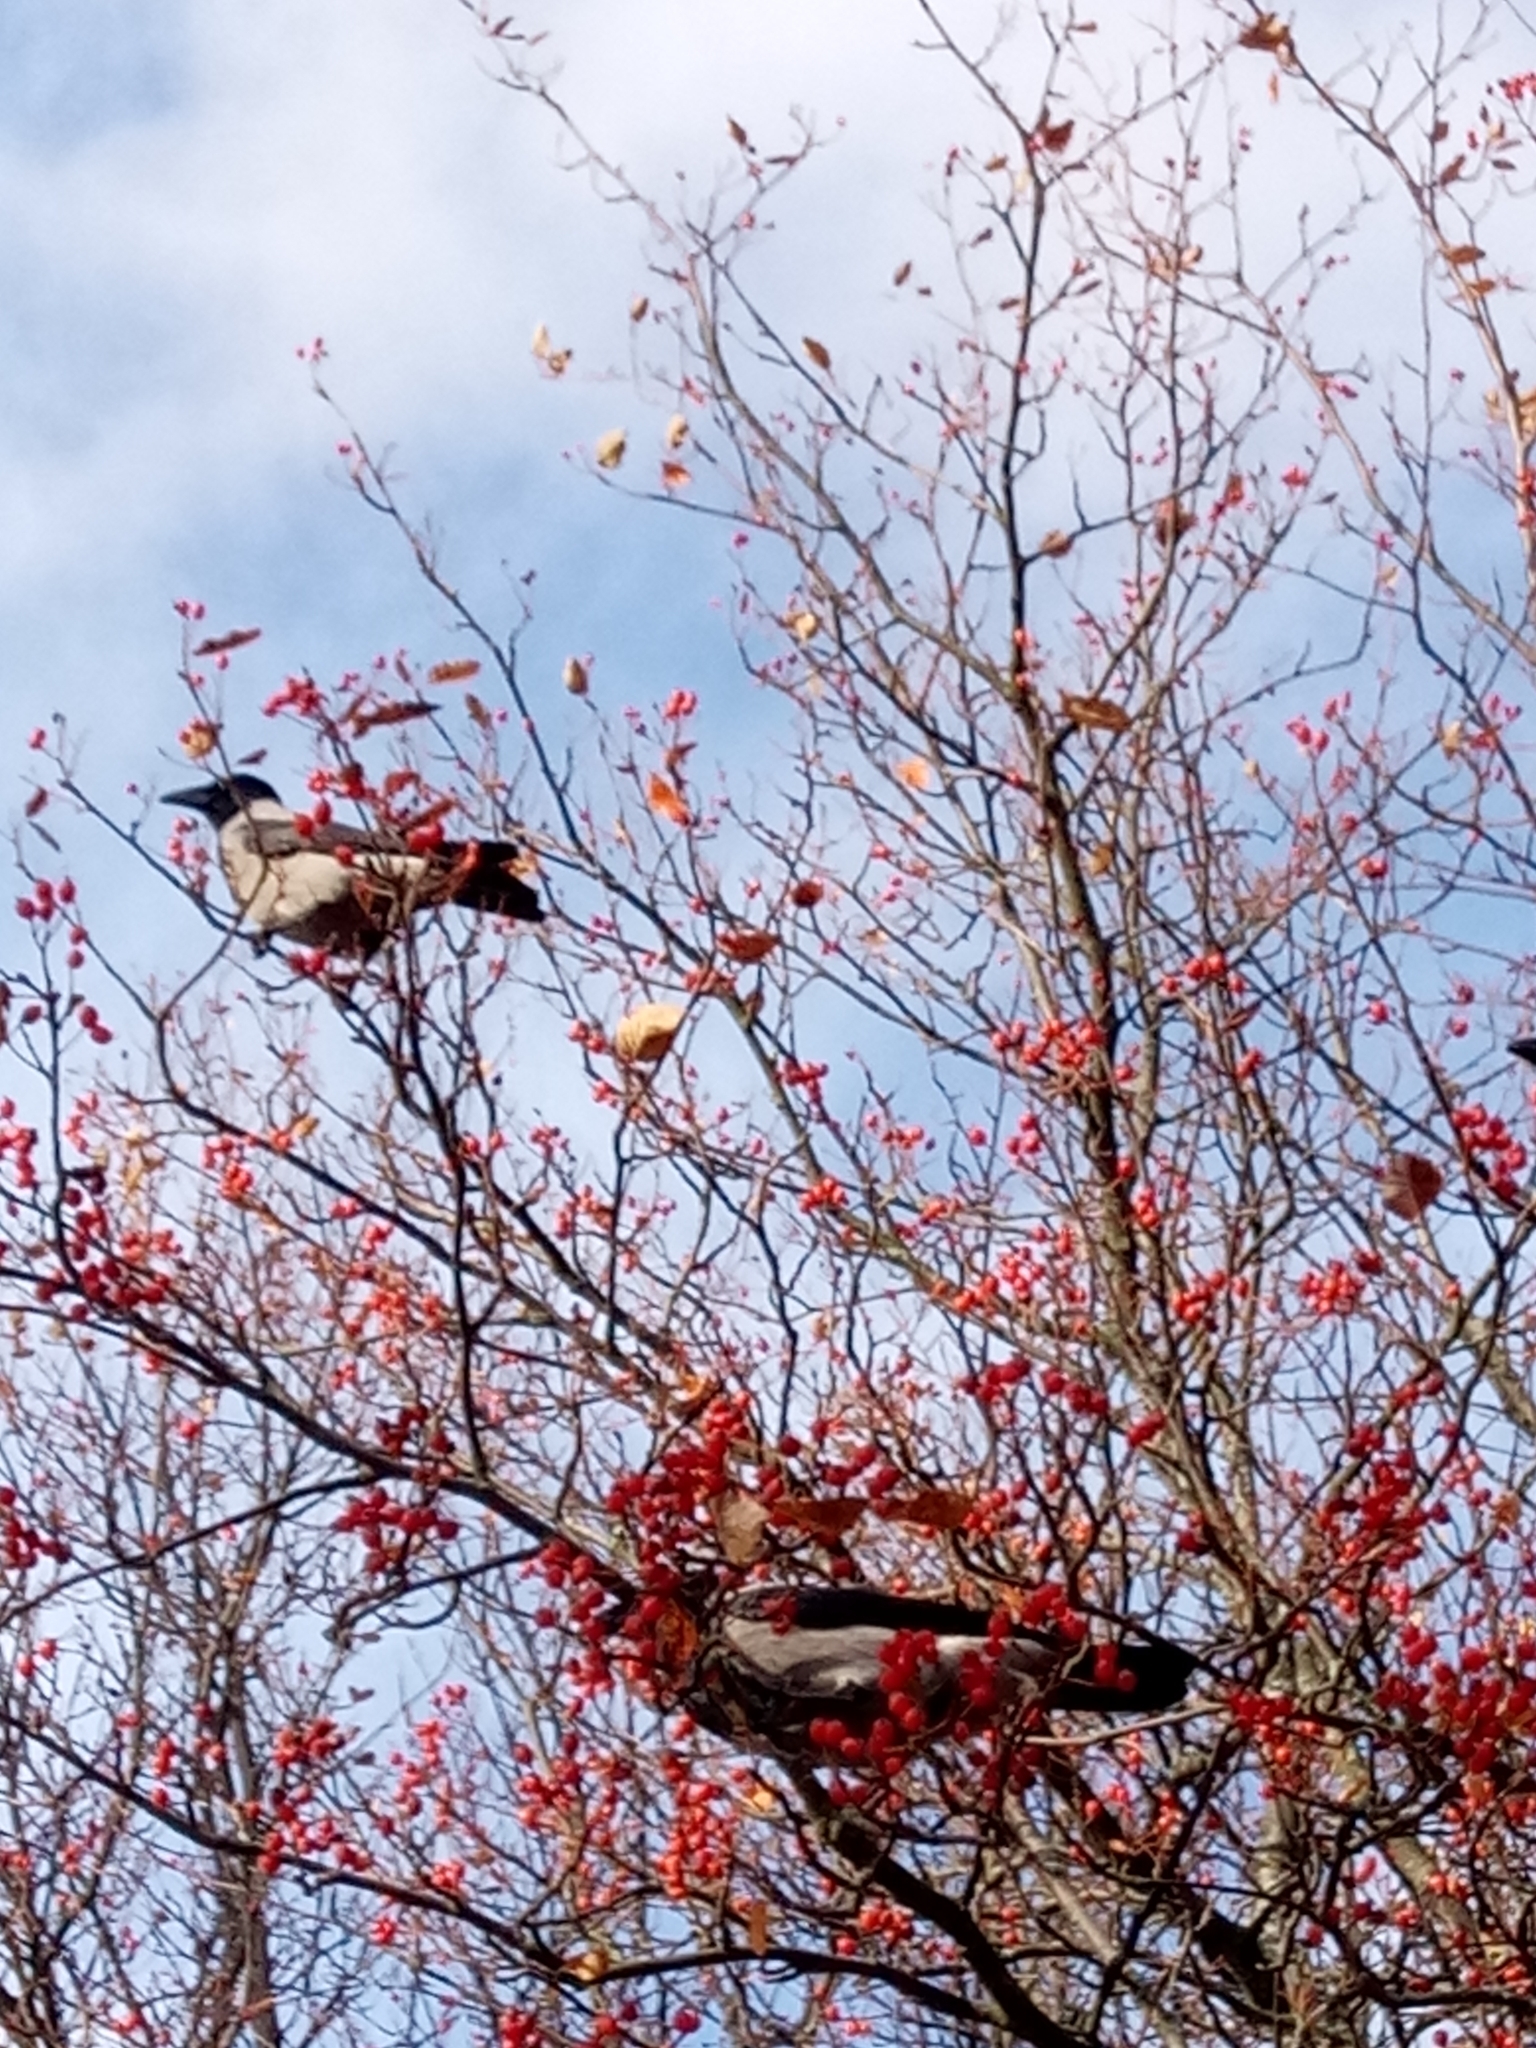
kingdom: Animalia
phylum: Chordata
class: Aves
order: Passeriformes
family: Corvidae
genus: Corvus
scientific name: Corvus cornix
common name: Hooded crow
